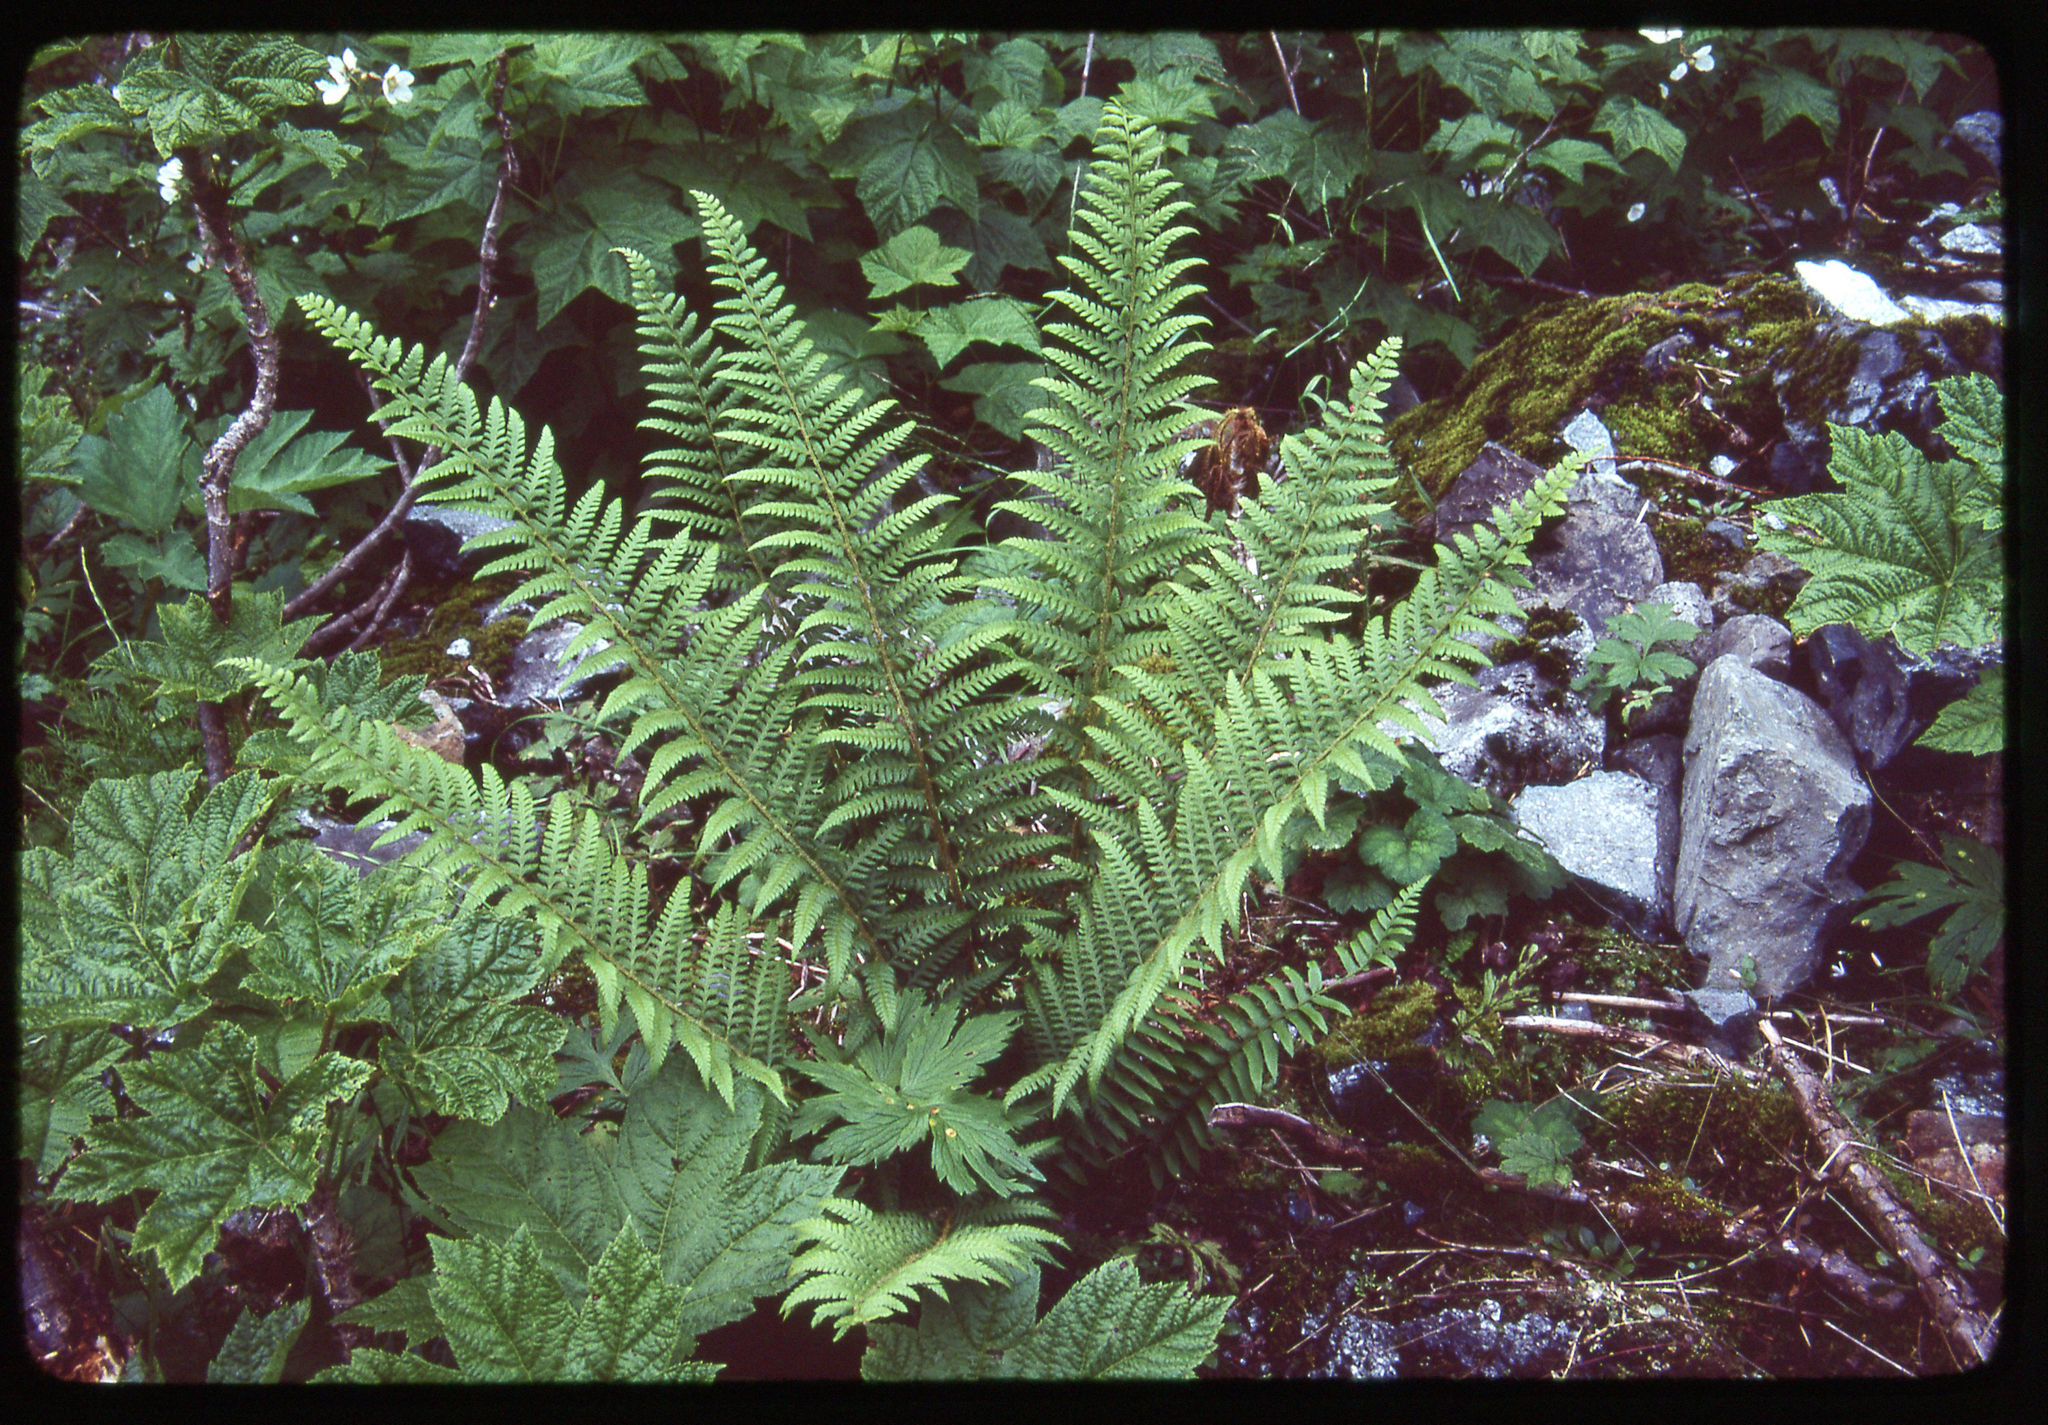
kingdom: Plantae
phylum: Tracheophyta
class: Polypodiopsida
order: Polypodiales
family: Dryopteridaceae
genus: Polystichum
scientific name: Polystichum andersonii
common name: Anderson's holly fern
